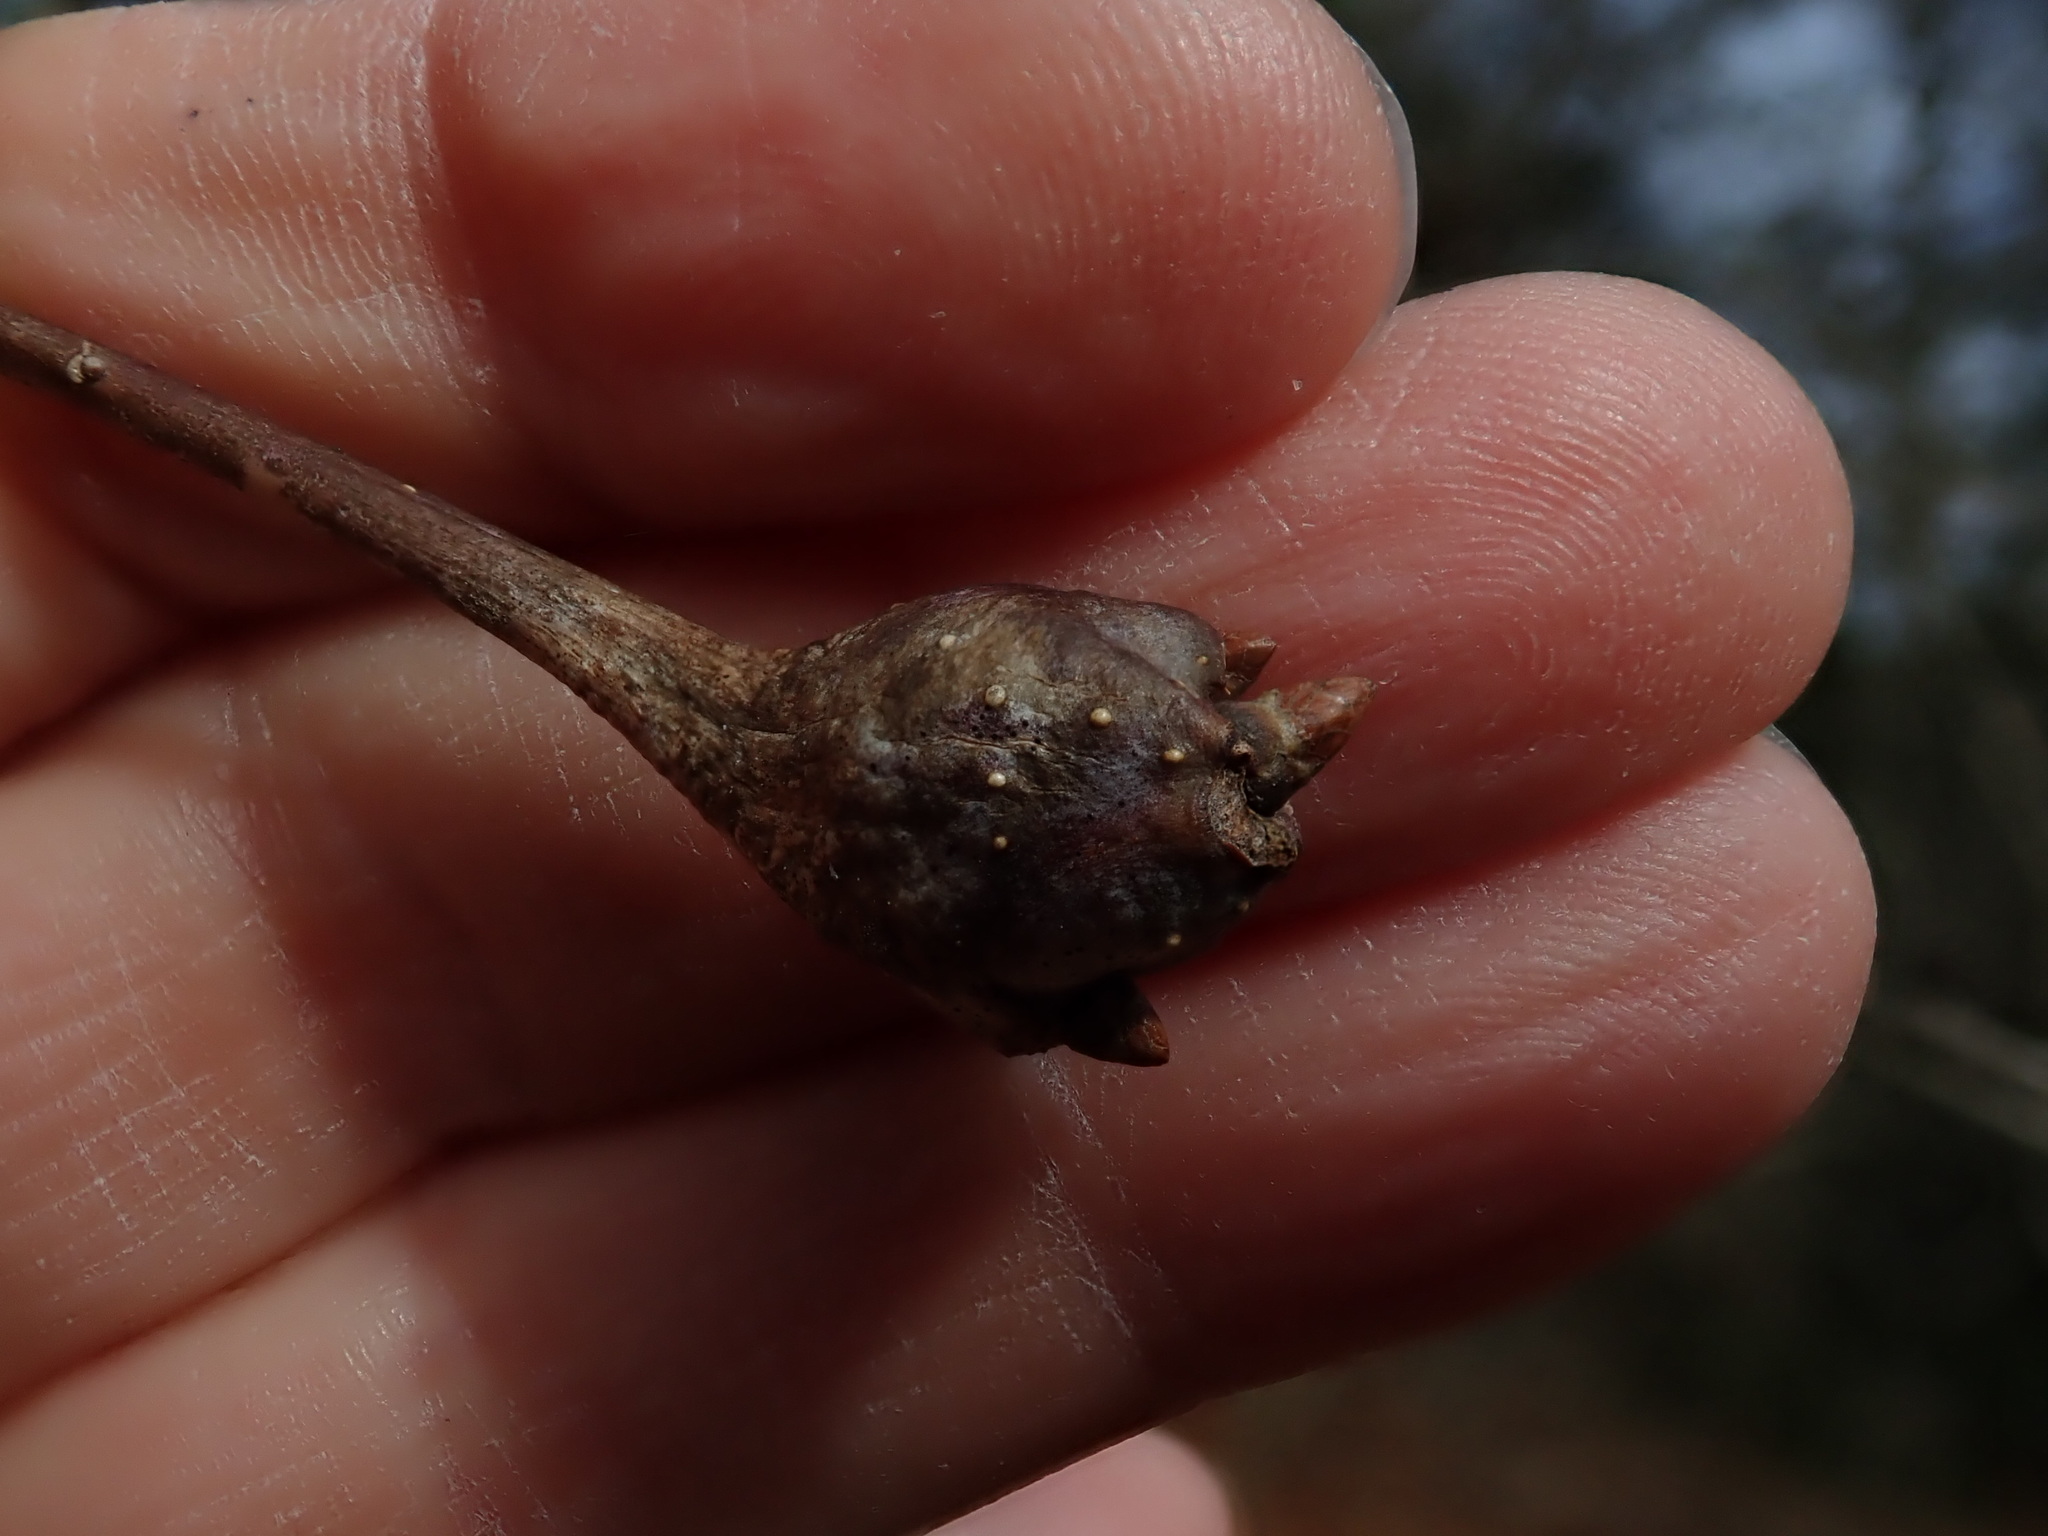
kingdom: Animalia
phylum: Arthropoda
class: Insecta
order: Hymenoptera
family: Cynipidae
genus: Callirhytis
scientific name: Callirhytis clavula
